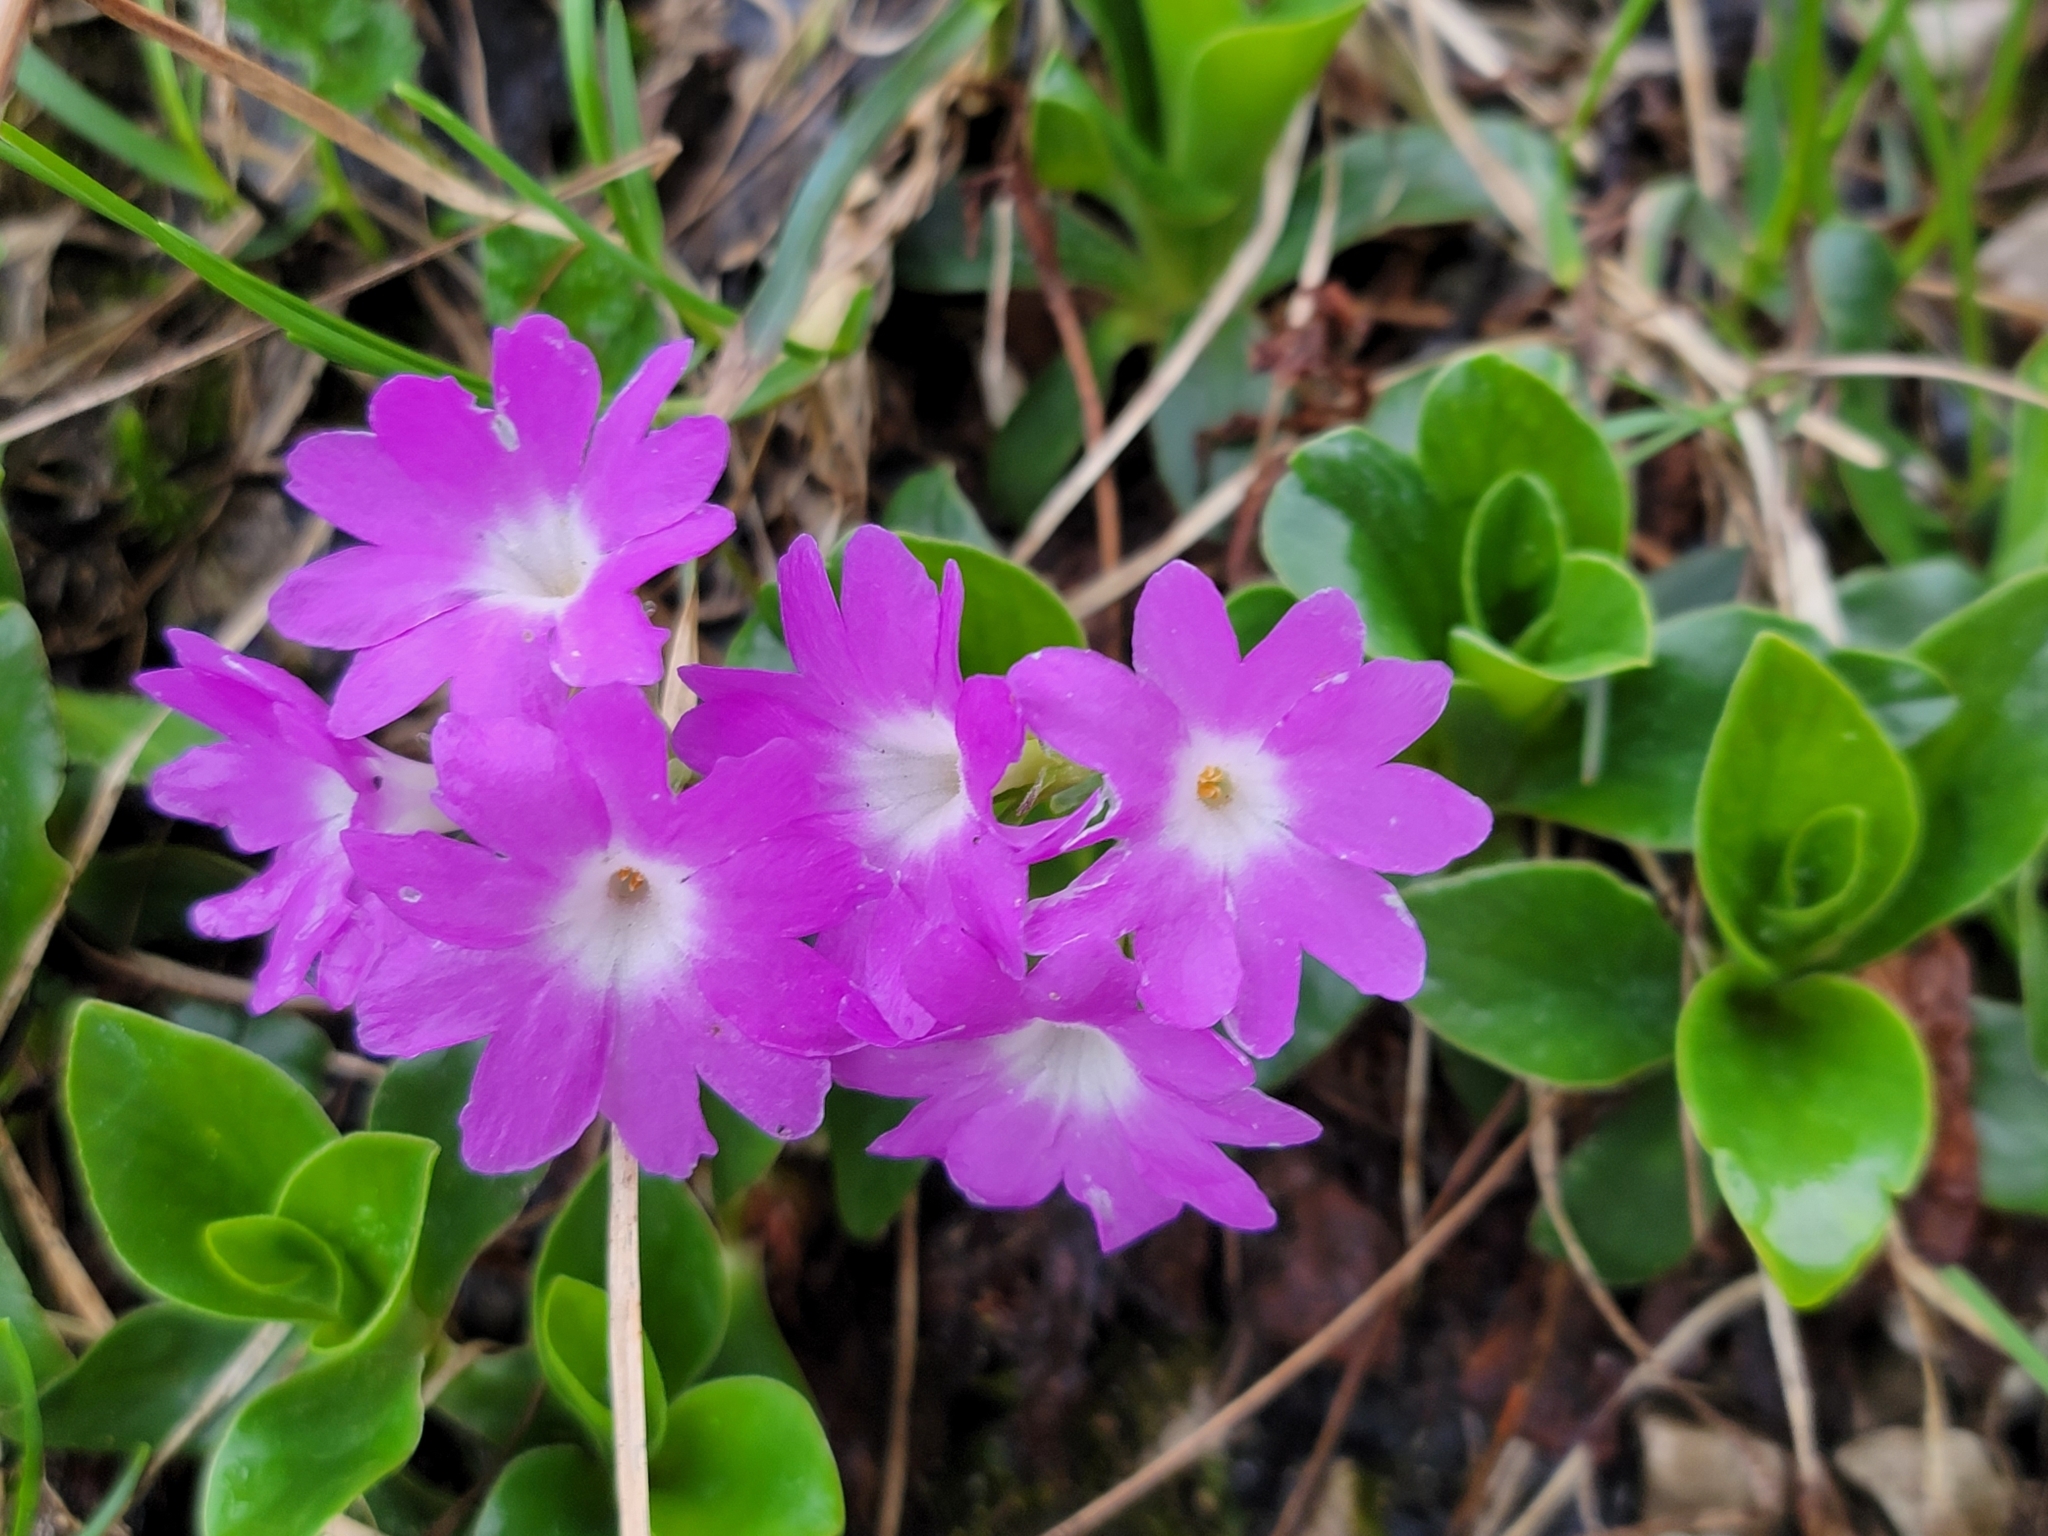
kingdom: Plantae
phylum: Tracheophyta
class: Magnoliopsida
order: Ericales
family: Primulaceae
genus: Primula
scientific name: Primula clusiana
